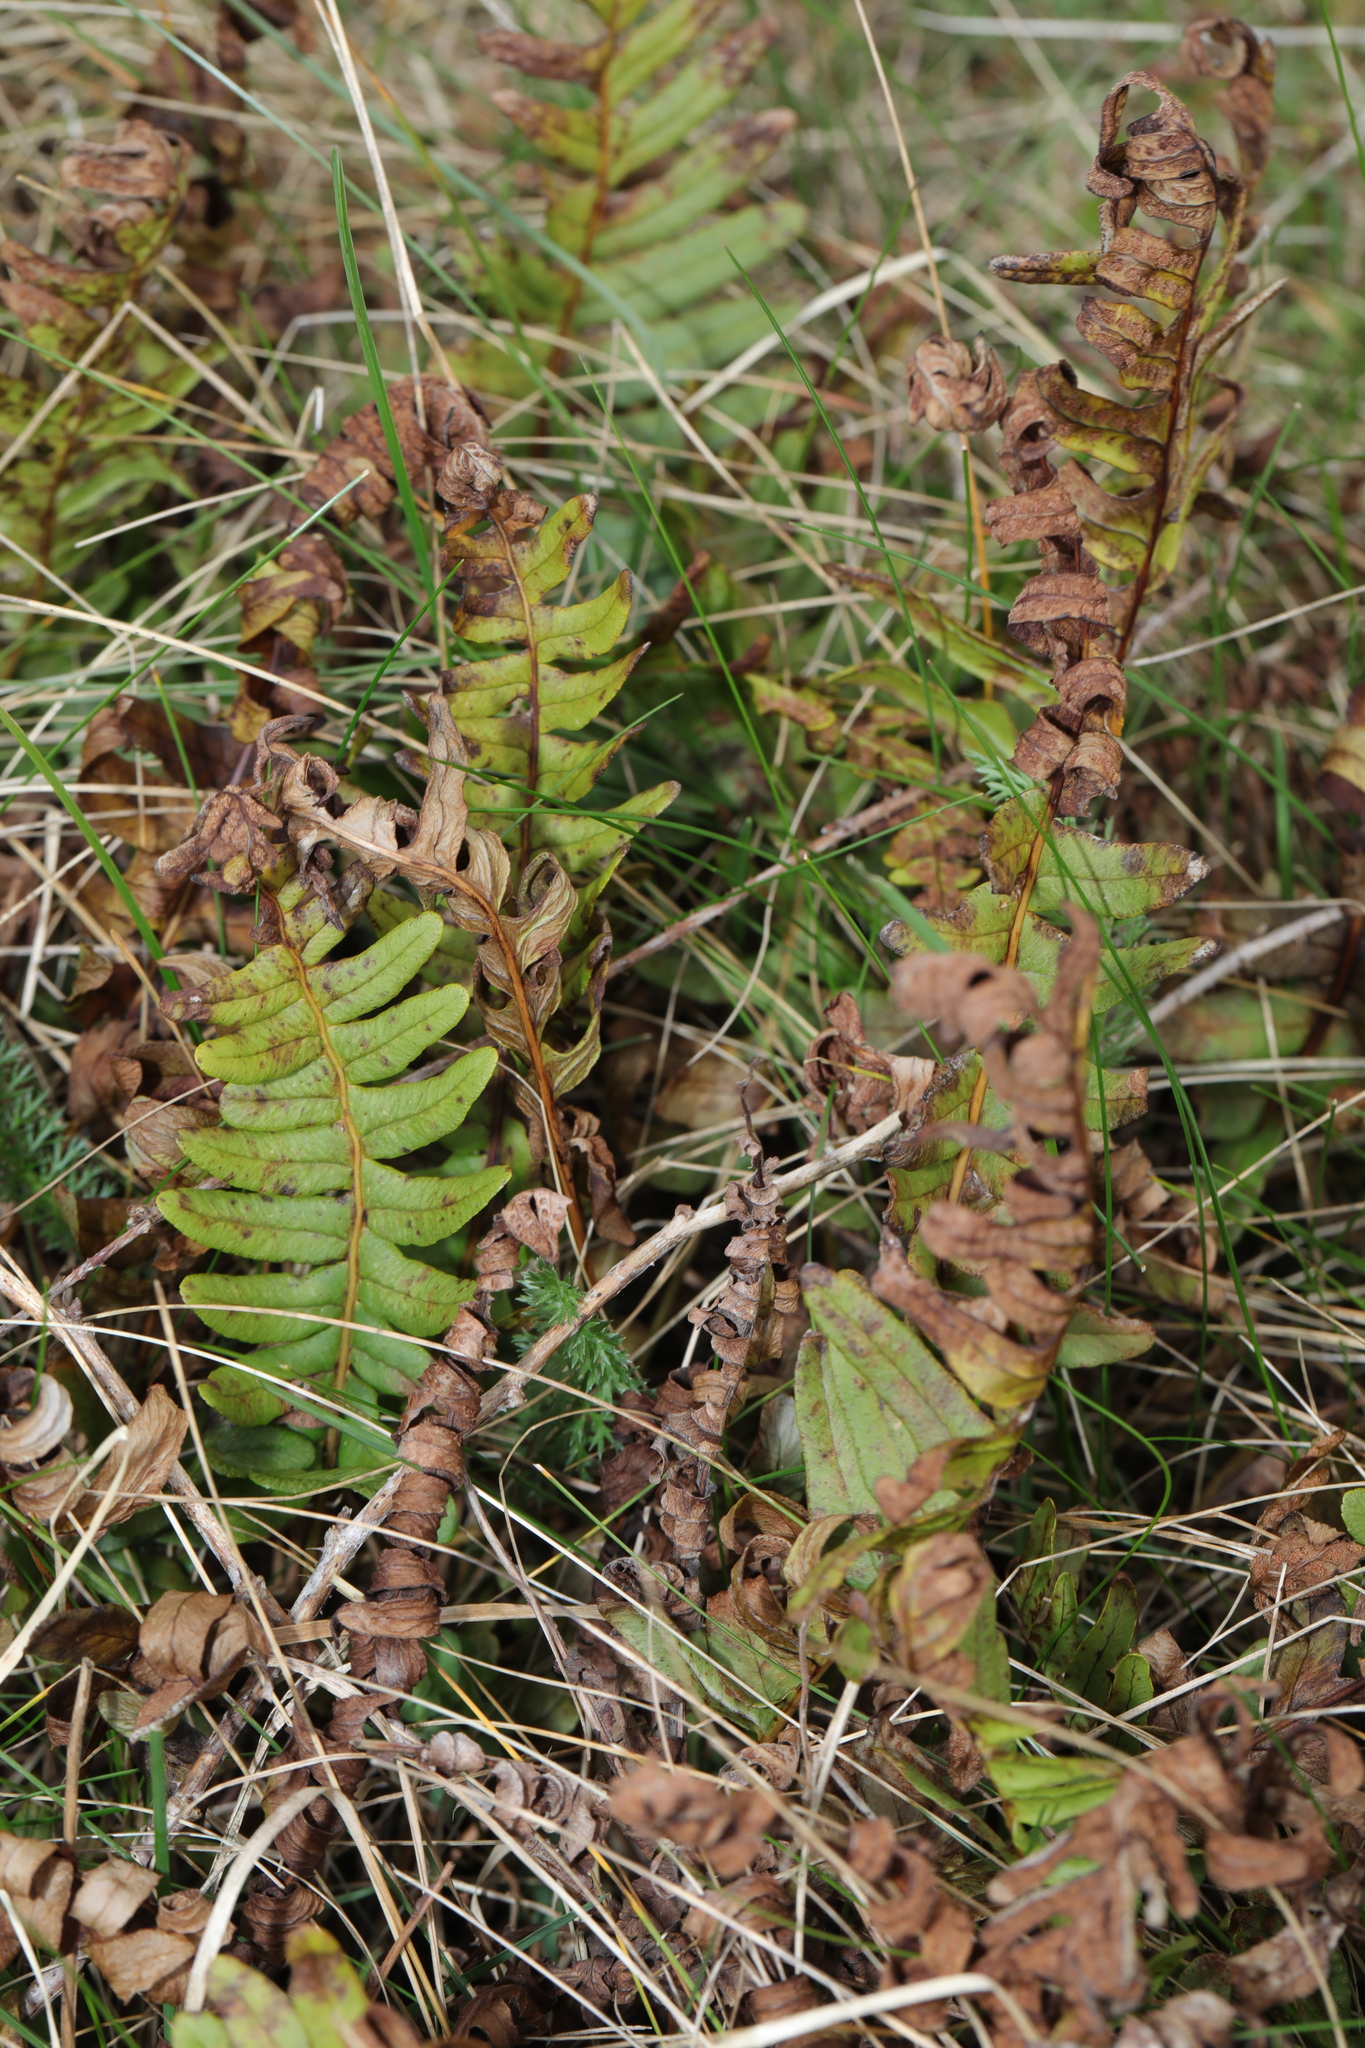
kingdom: Plantae
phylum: Tracheophyta
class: Polypodiopsida
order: Polypodiales
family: Polypodiaceae
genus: Polypodium
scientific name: Polypodium vulgare
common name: Common polypody
